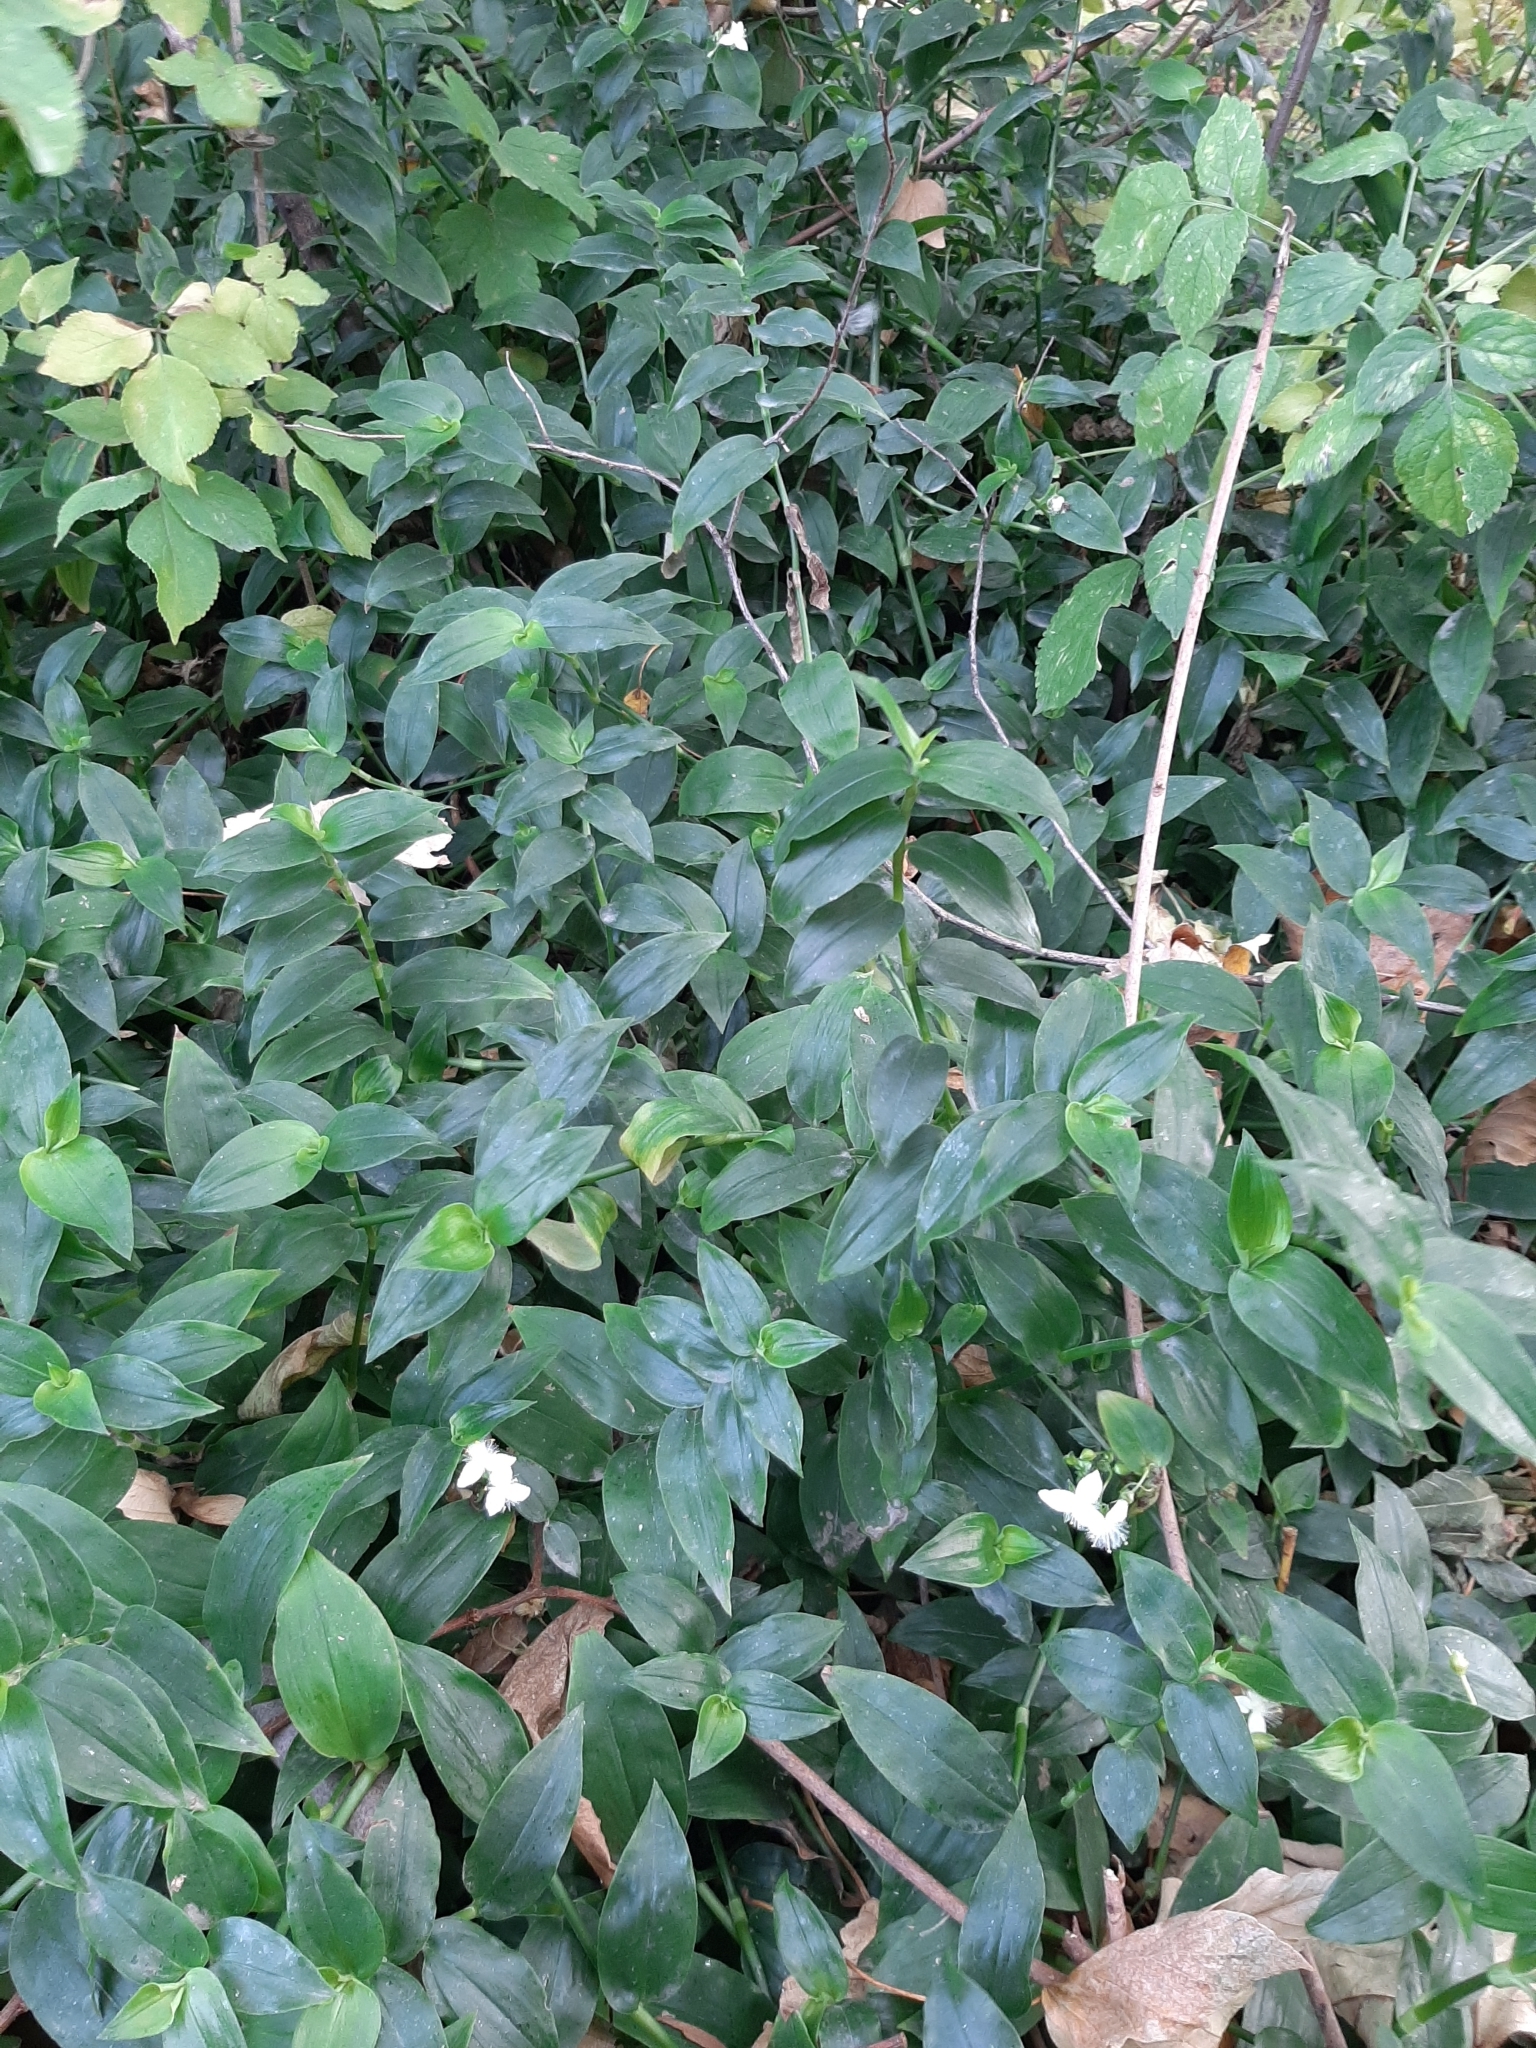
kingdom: Plantae
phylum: Tracheophyta
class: Liliopsida
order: Commelinales
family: Commelinaceae
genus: Tradescantia
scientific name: Tradescantia fluminensis
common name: Wandering-jew
